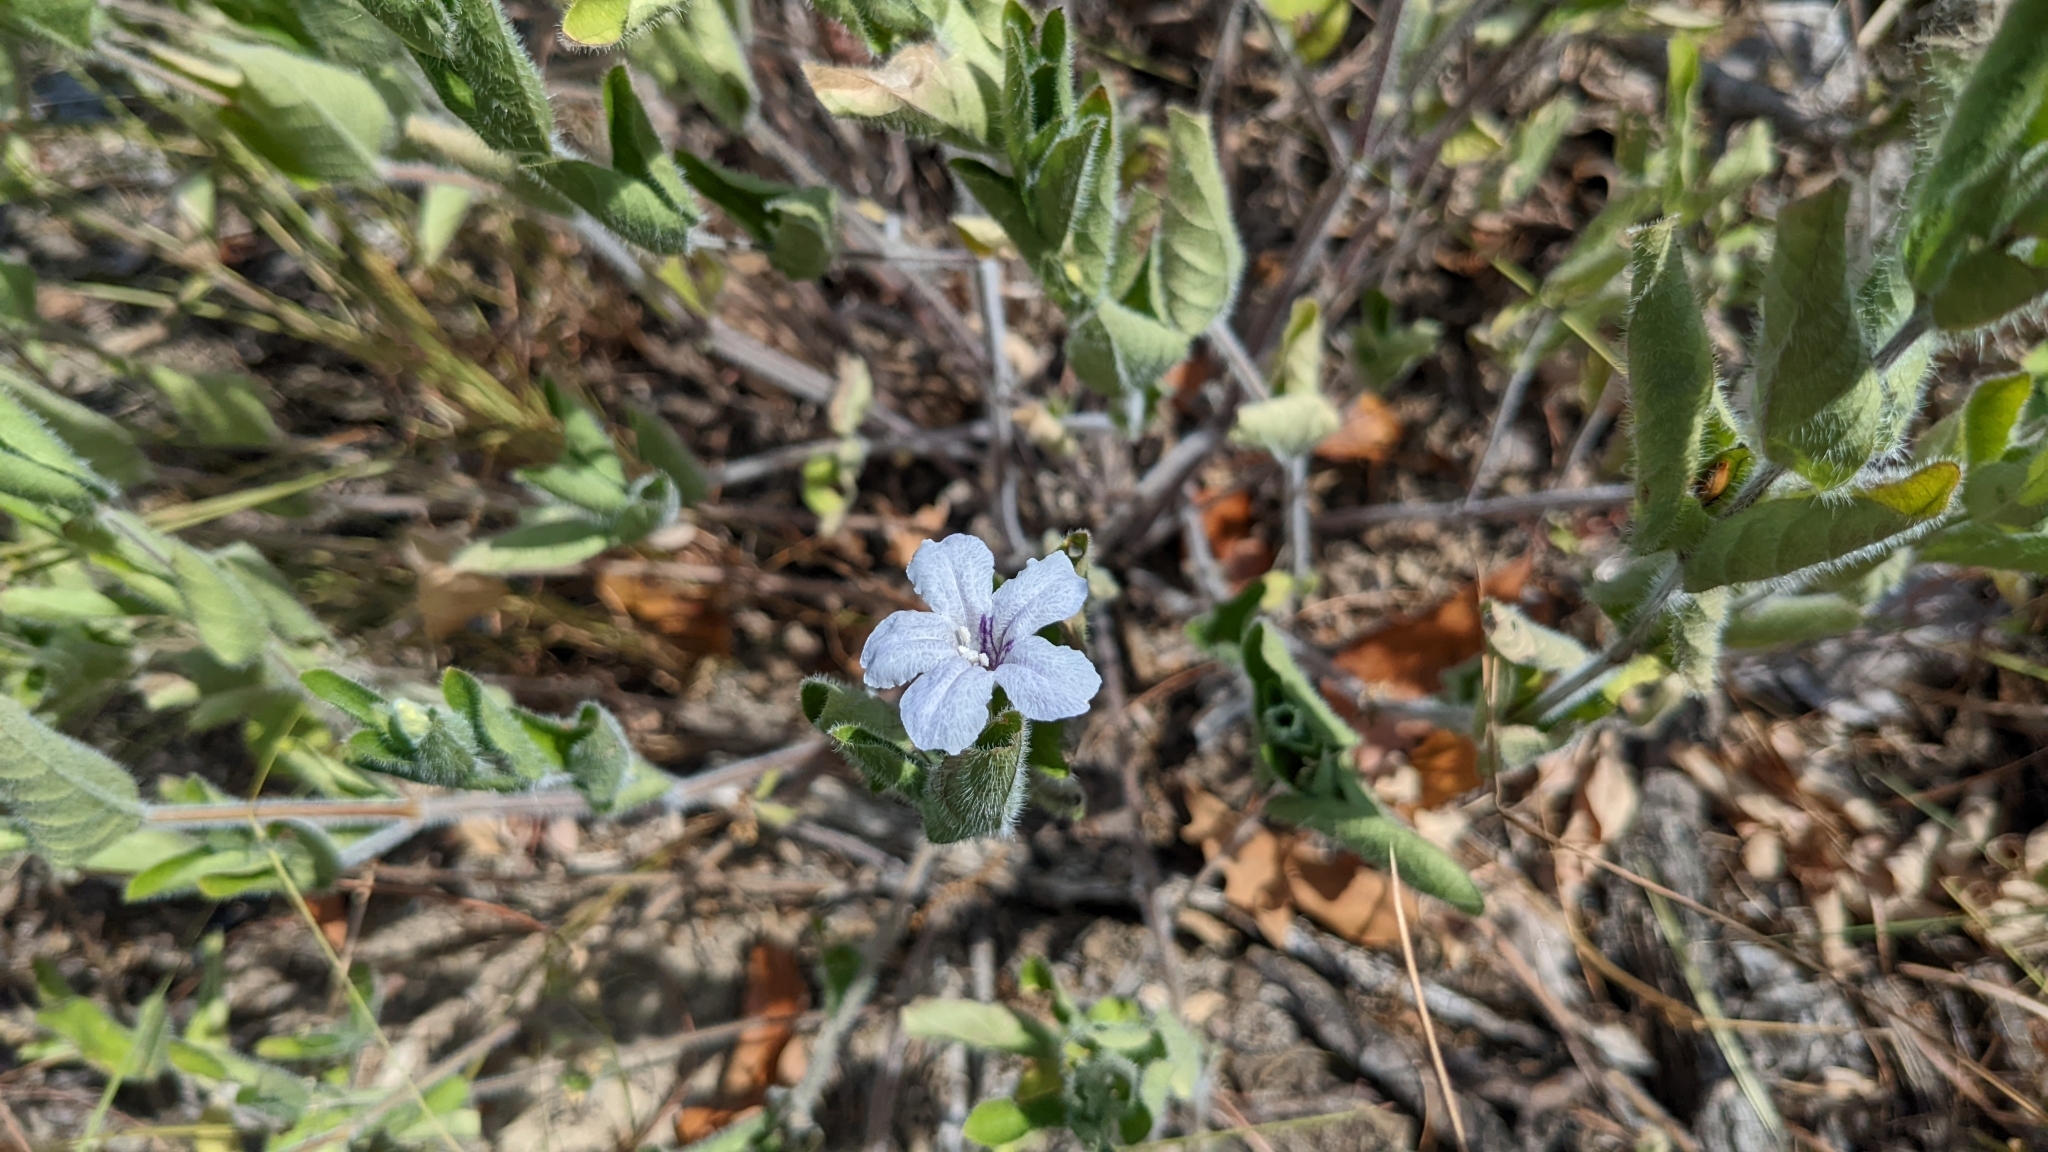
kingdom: Plantae
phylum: Tracheophyta
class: Magnoliopsida
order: Lamiales
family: Acanthaceae
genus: Ruellia
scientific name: Ruellia humilis
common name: Fringe-leaf ruellia
